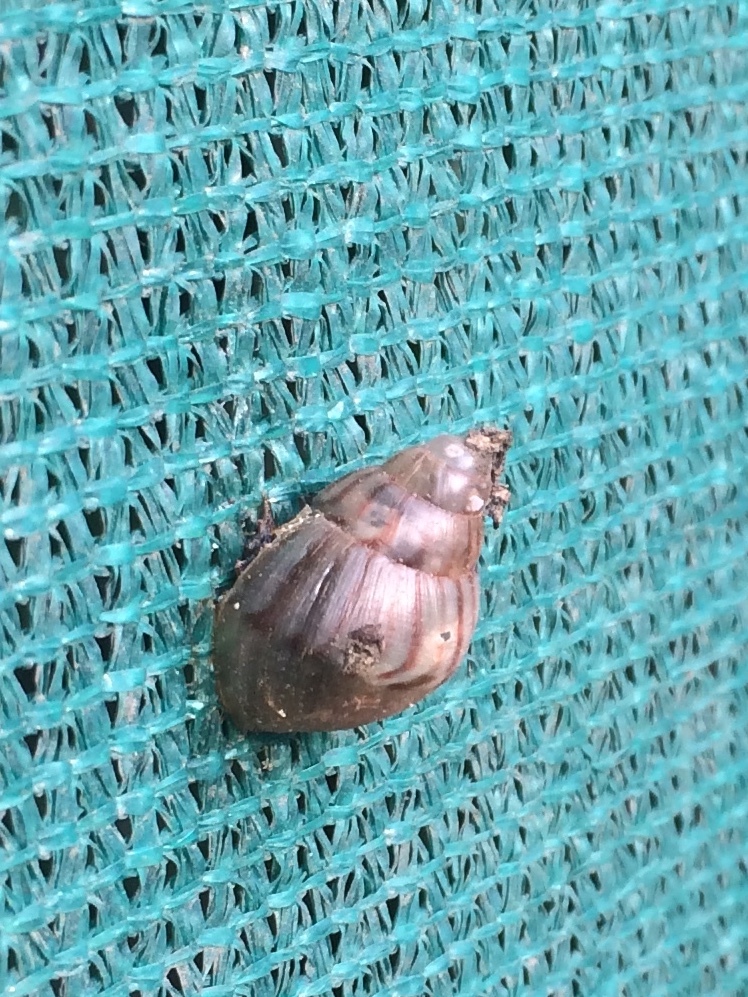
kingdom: Animalia
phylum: Mollusca
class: Gastropoda
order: Stylommatophora
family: Achatinidae
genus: Lissachatina
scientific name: Lissachatina fulica
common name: Giant african snail
